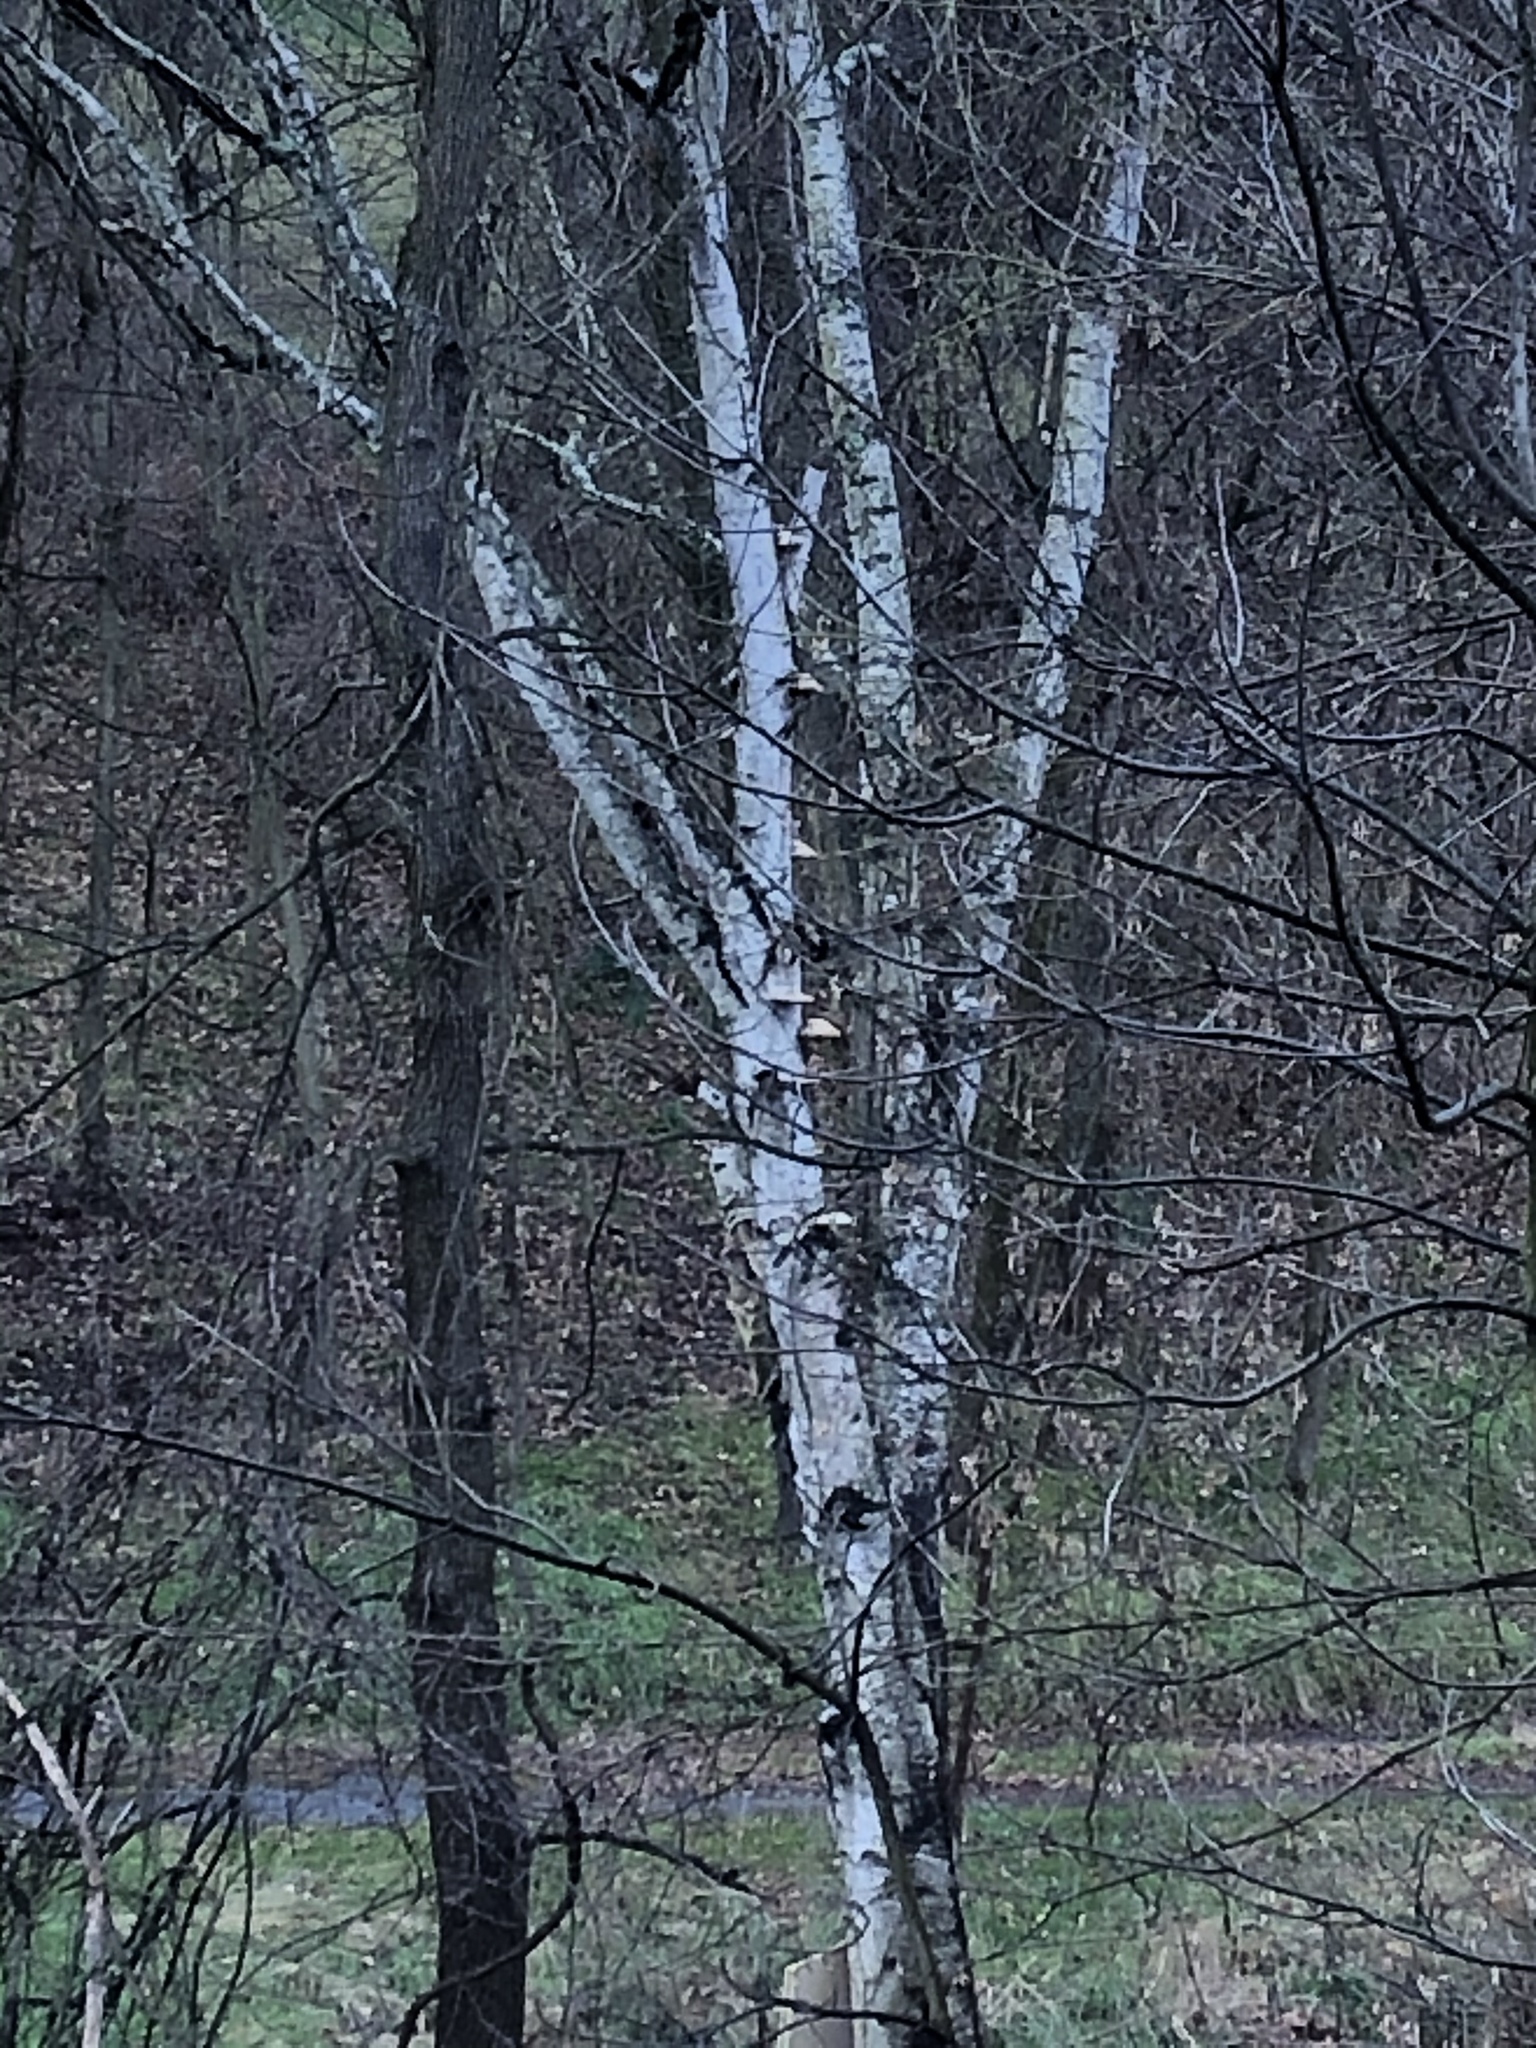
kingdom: Fungi
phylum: Basidiomycota
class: Agaricomycetes
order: Polyporales
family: Fomitopsidaceae
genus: Fomitopsis
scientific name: Fomitopsis betulina
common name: Birch polypore
